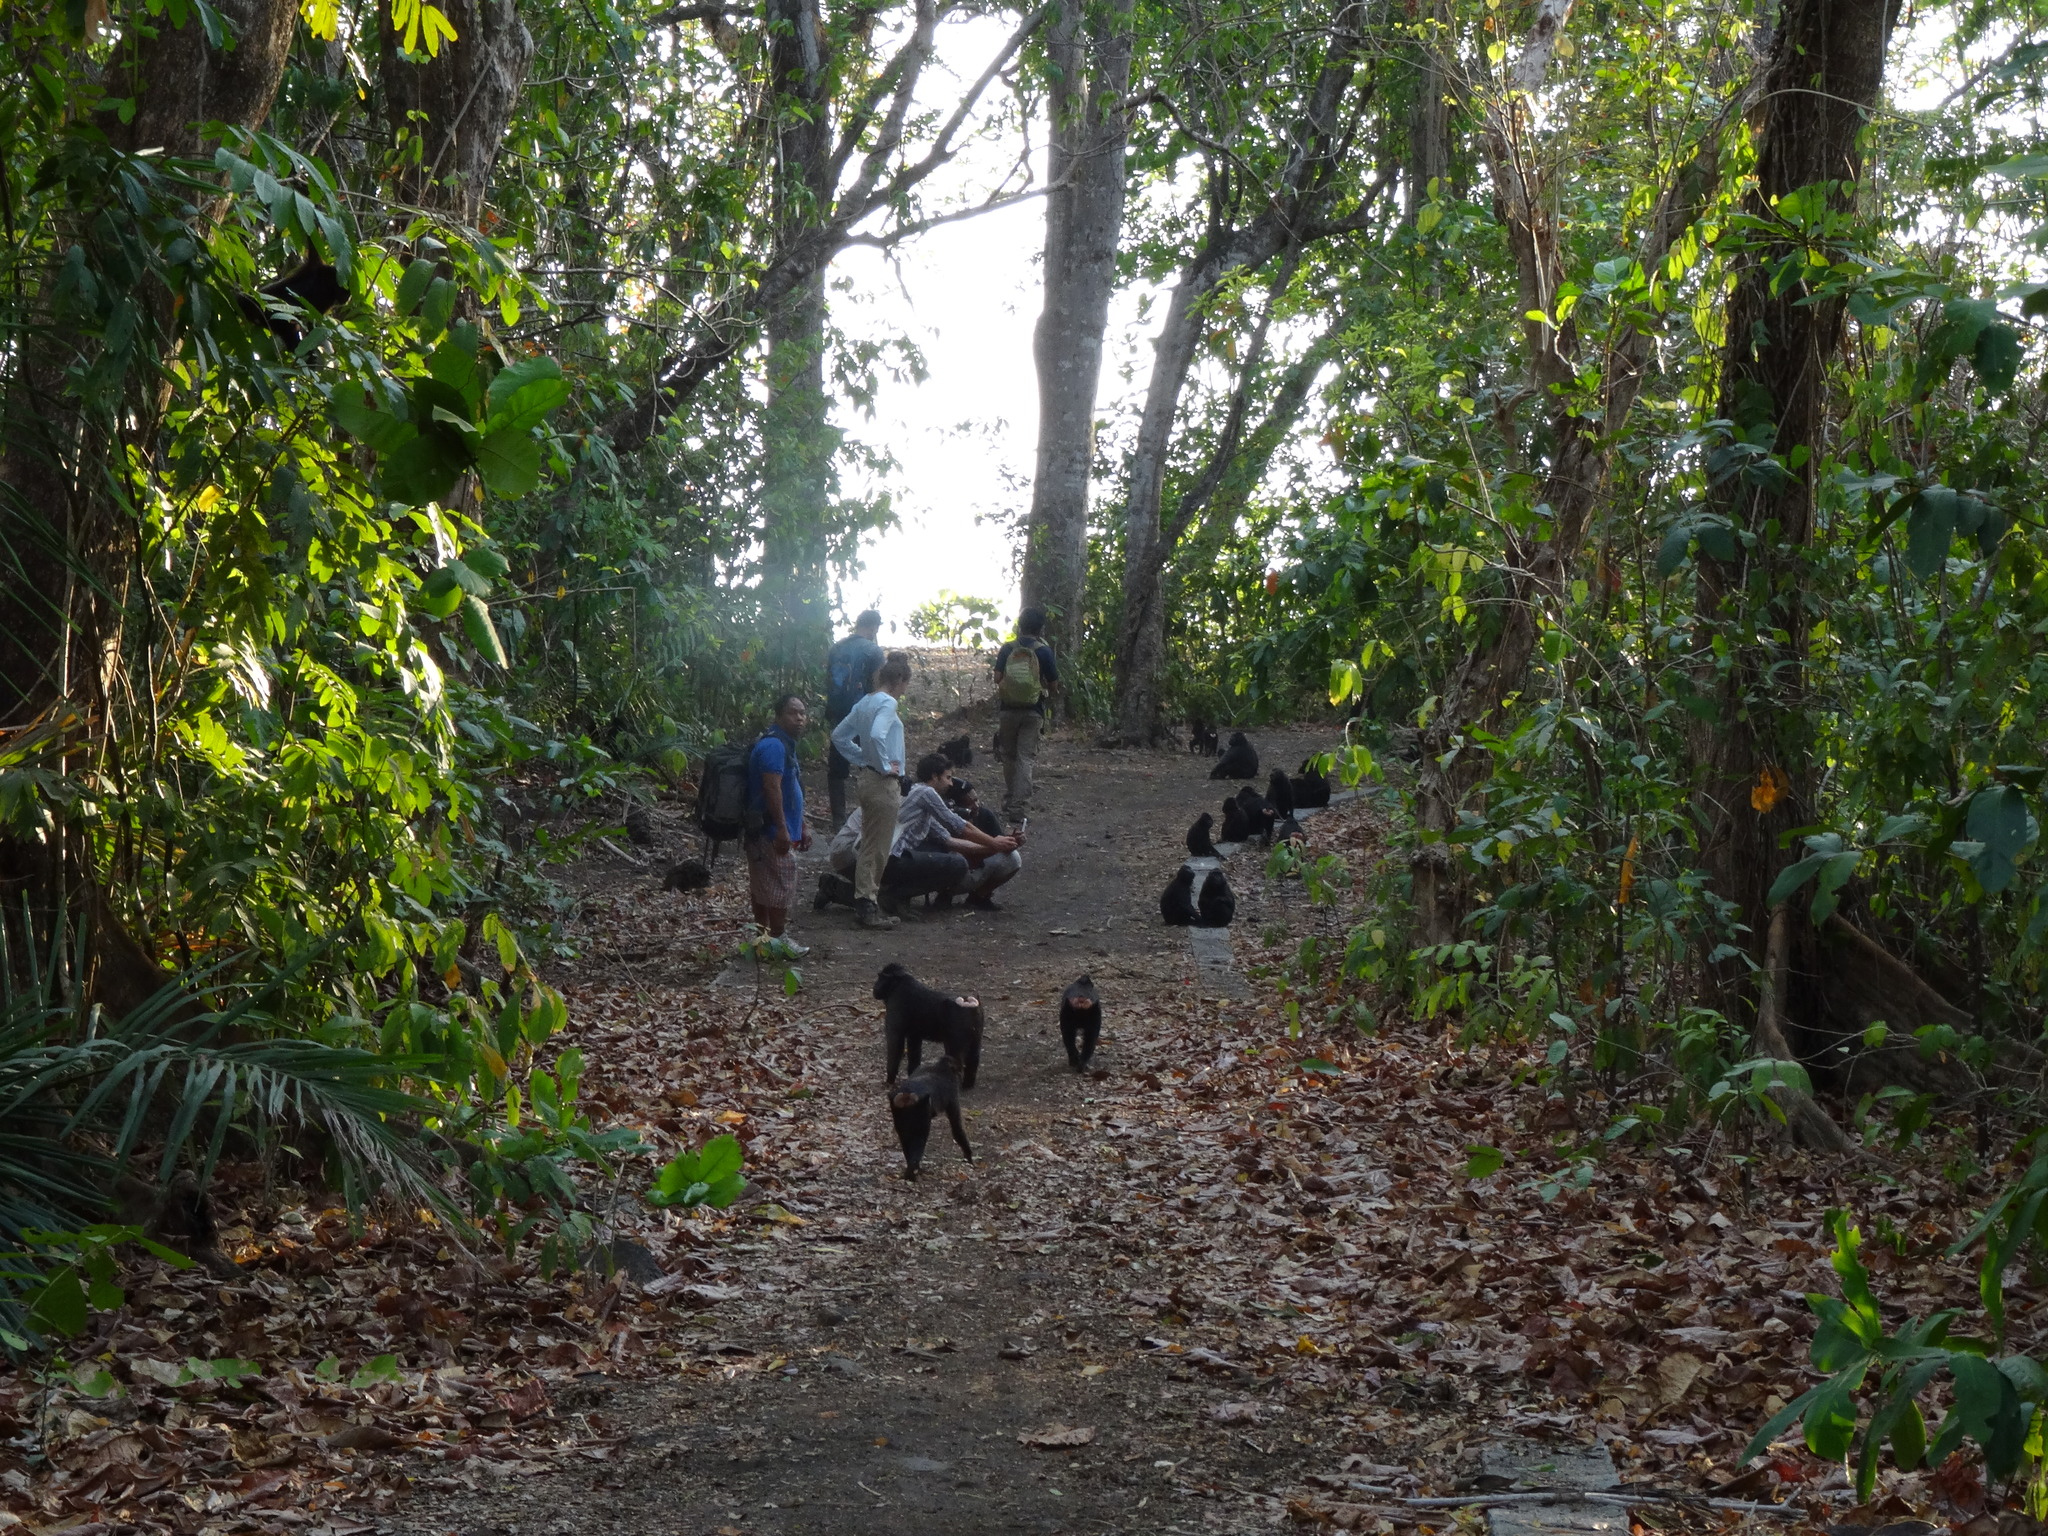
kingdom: Animalia
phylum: Chordata
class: Mammalia
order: Primates
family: Cercopithecidae
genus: Macaca
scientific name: Macaca nigra
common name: Celebes crested macaque
